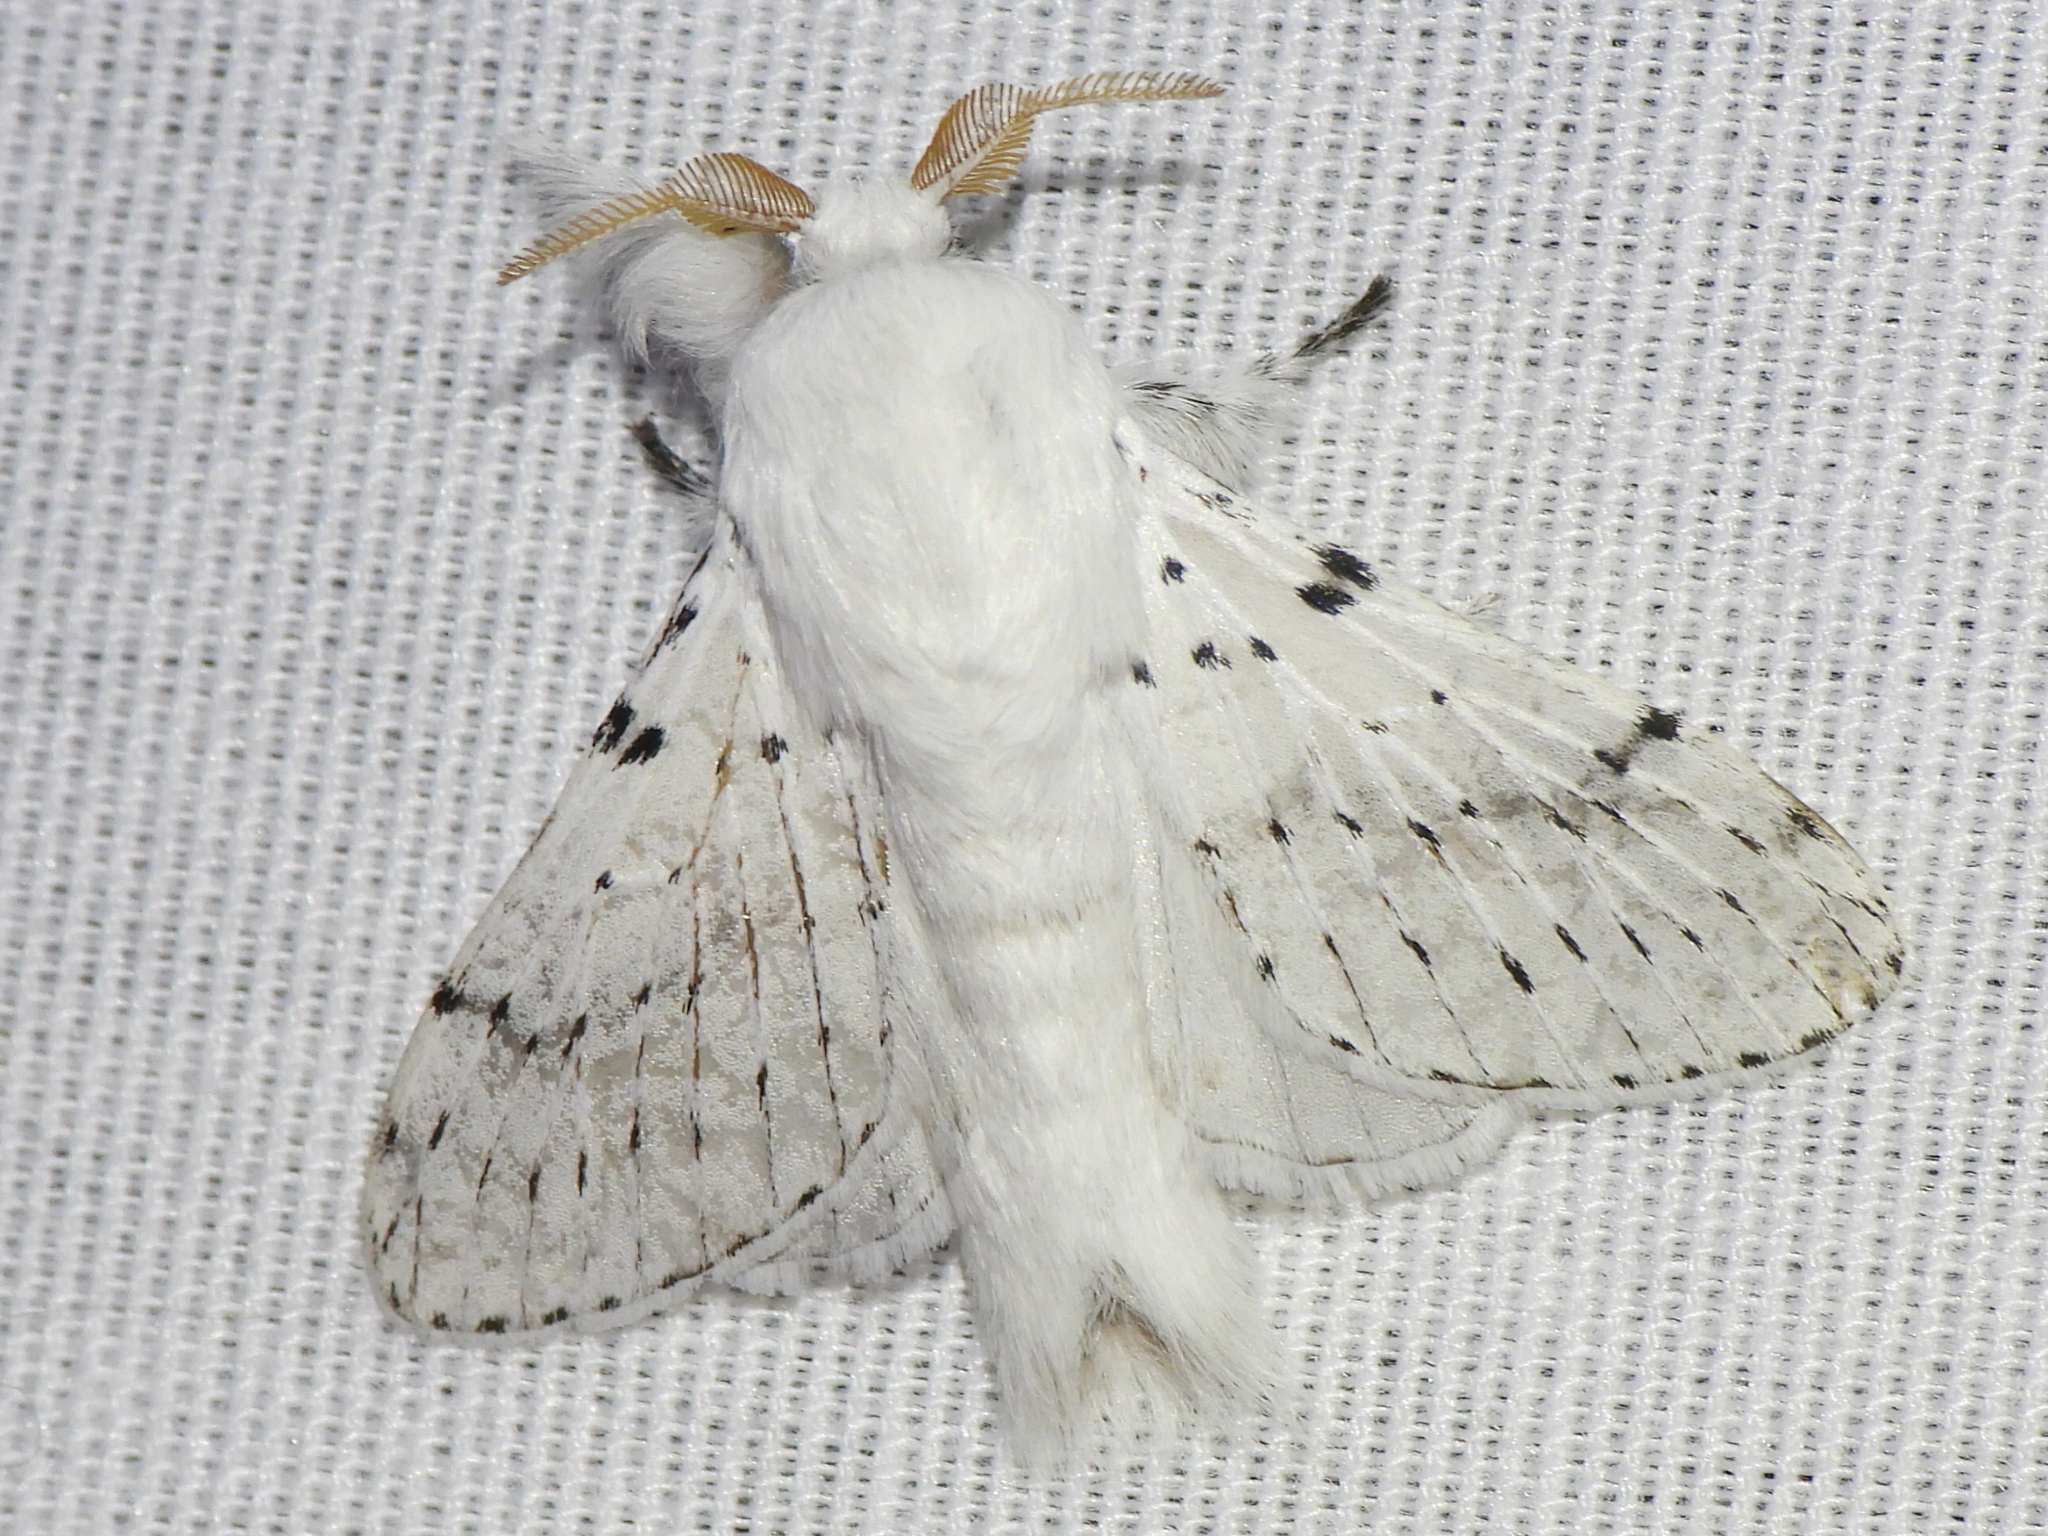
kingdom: Animalia
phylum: Arthropoda
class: Insecta
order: Lepidoptera
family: Lasiocampidae
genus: Artace
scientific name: Artace cribrarius
